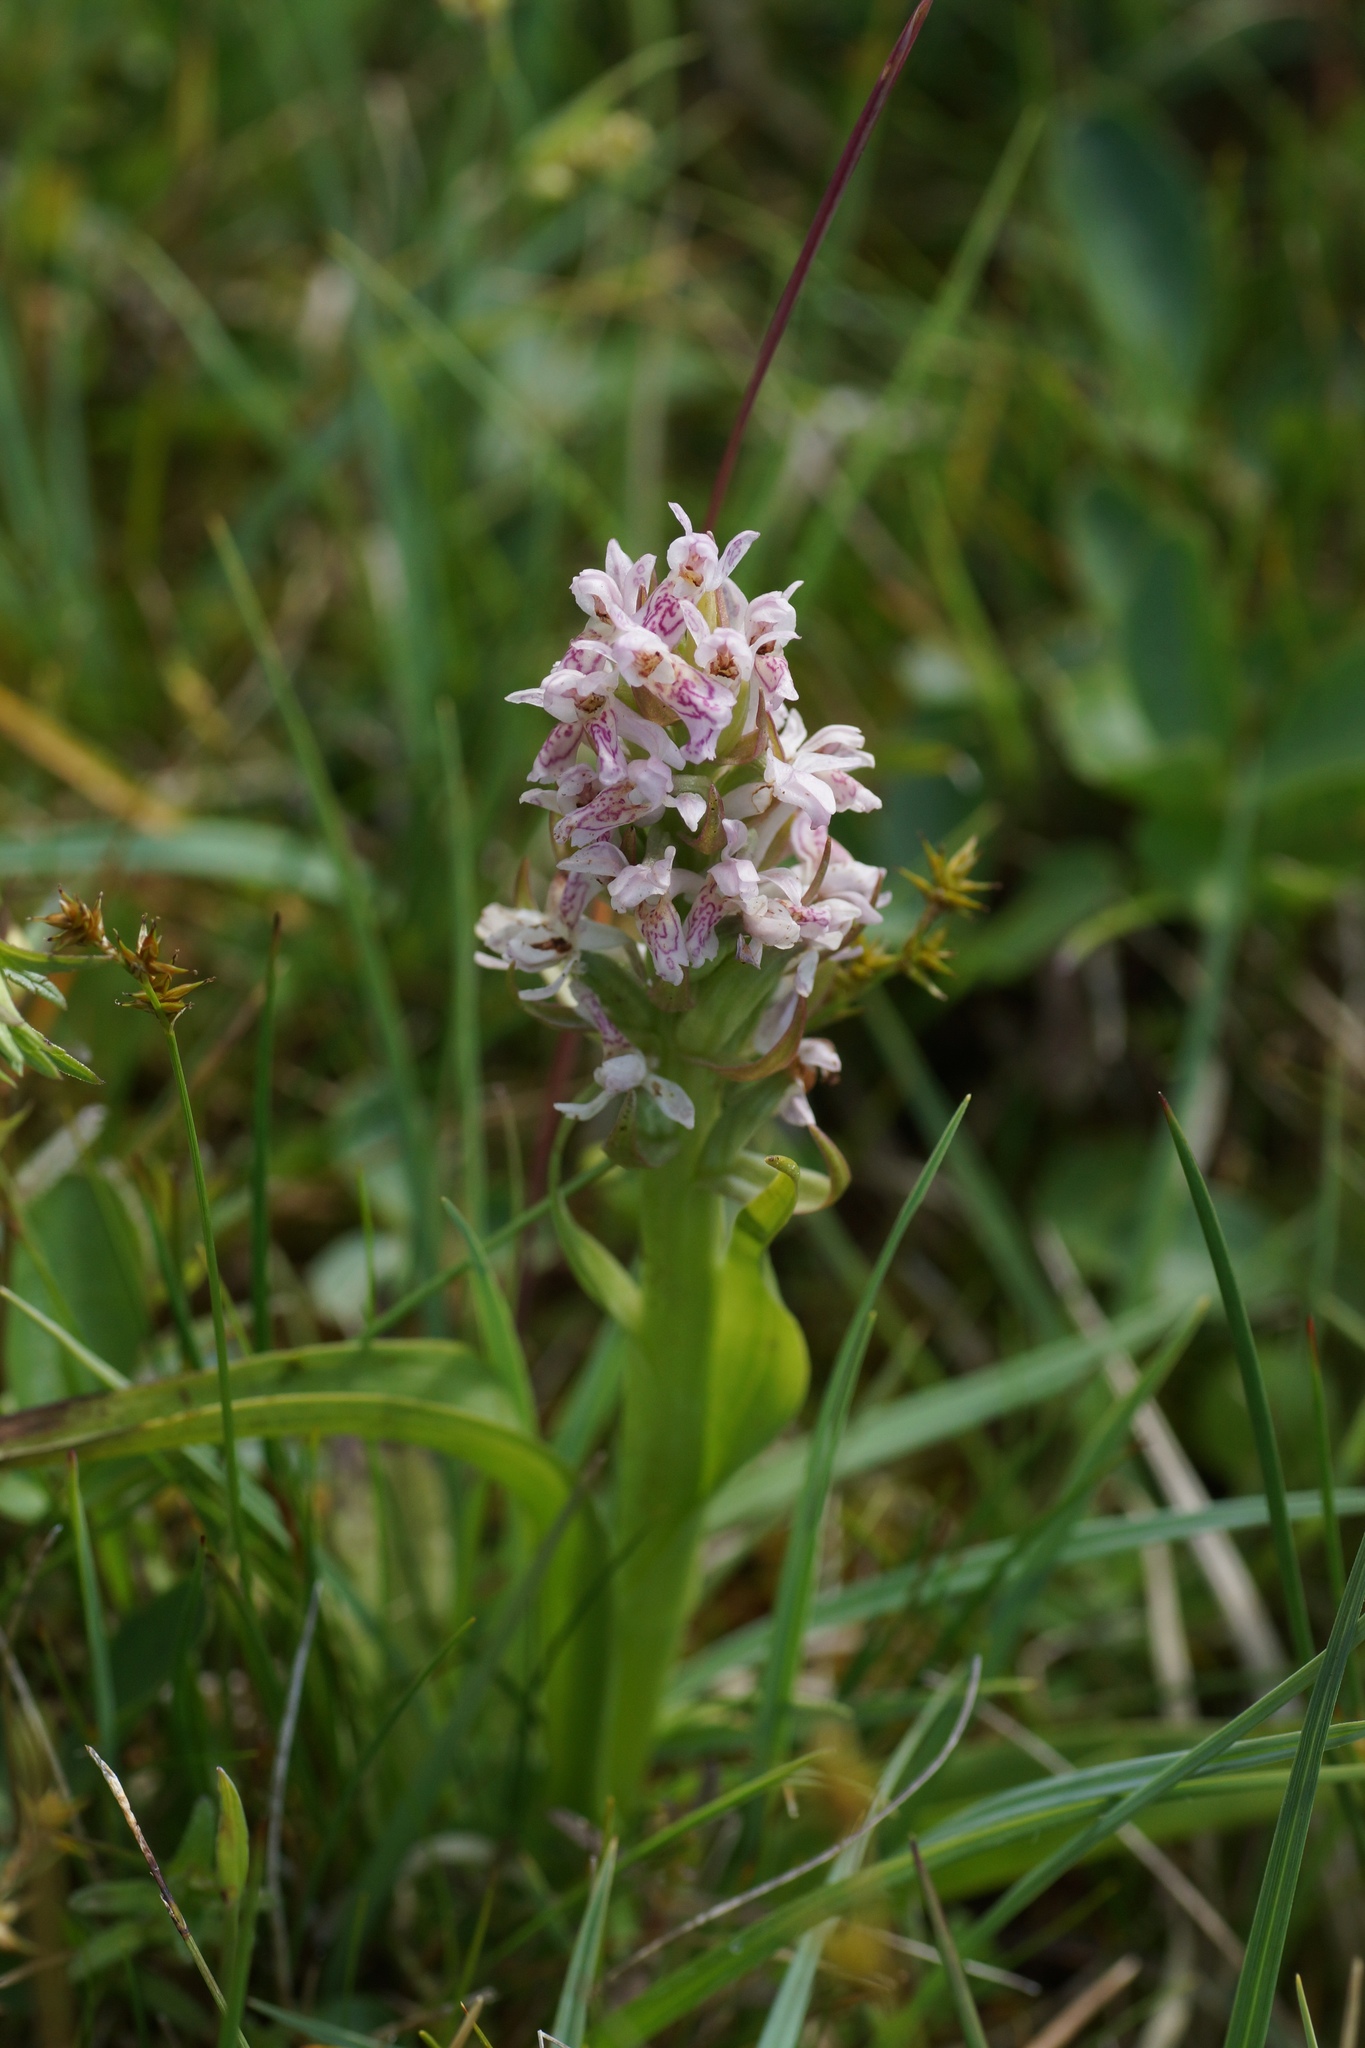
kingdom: Plantae
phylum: Tracheophyta
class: Liliopsida
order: Asparagales
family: Orchidaceae
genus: Dactylorhiza
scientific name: Dactylorhiza incarnata
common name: Early marsh-orchid
